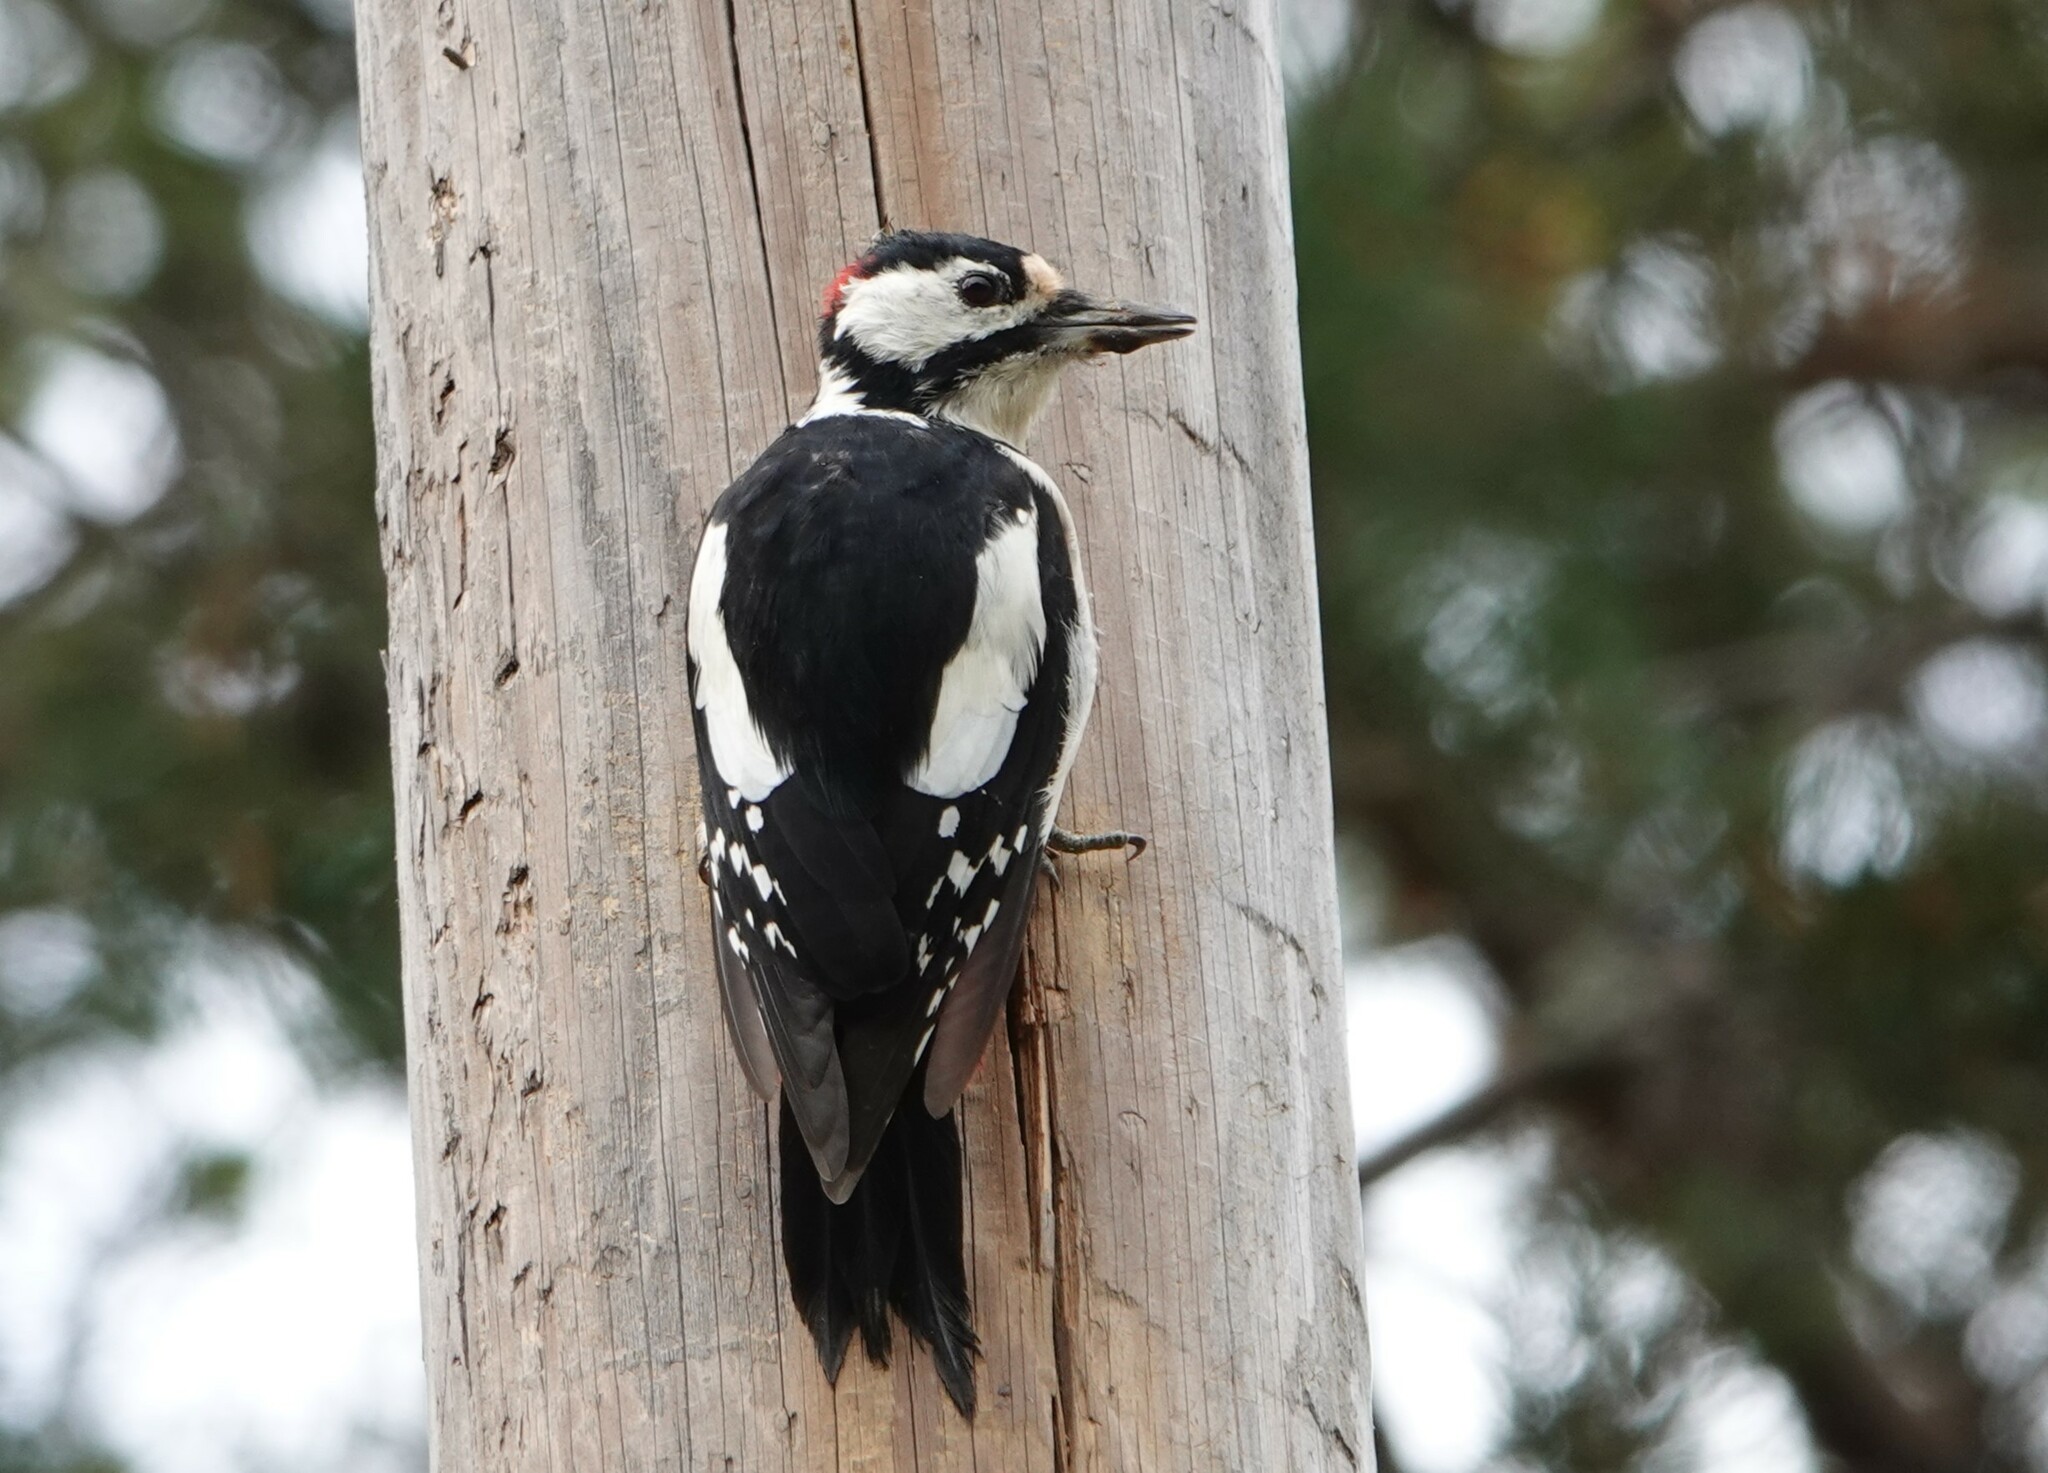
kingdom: Animalia
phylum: Chordata
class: Aves
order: Piciformes
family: Picidae
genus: Dendrocopos
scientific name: Dendrocopos major
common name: Great spotted woodpecker
